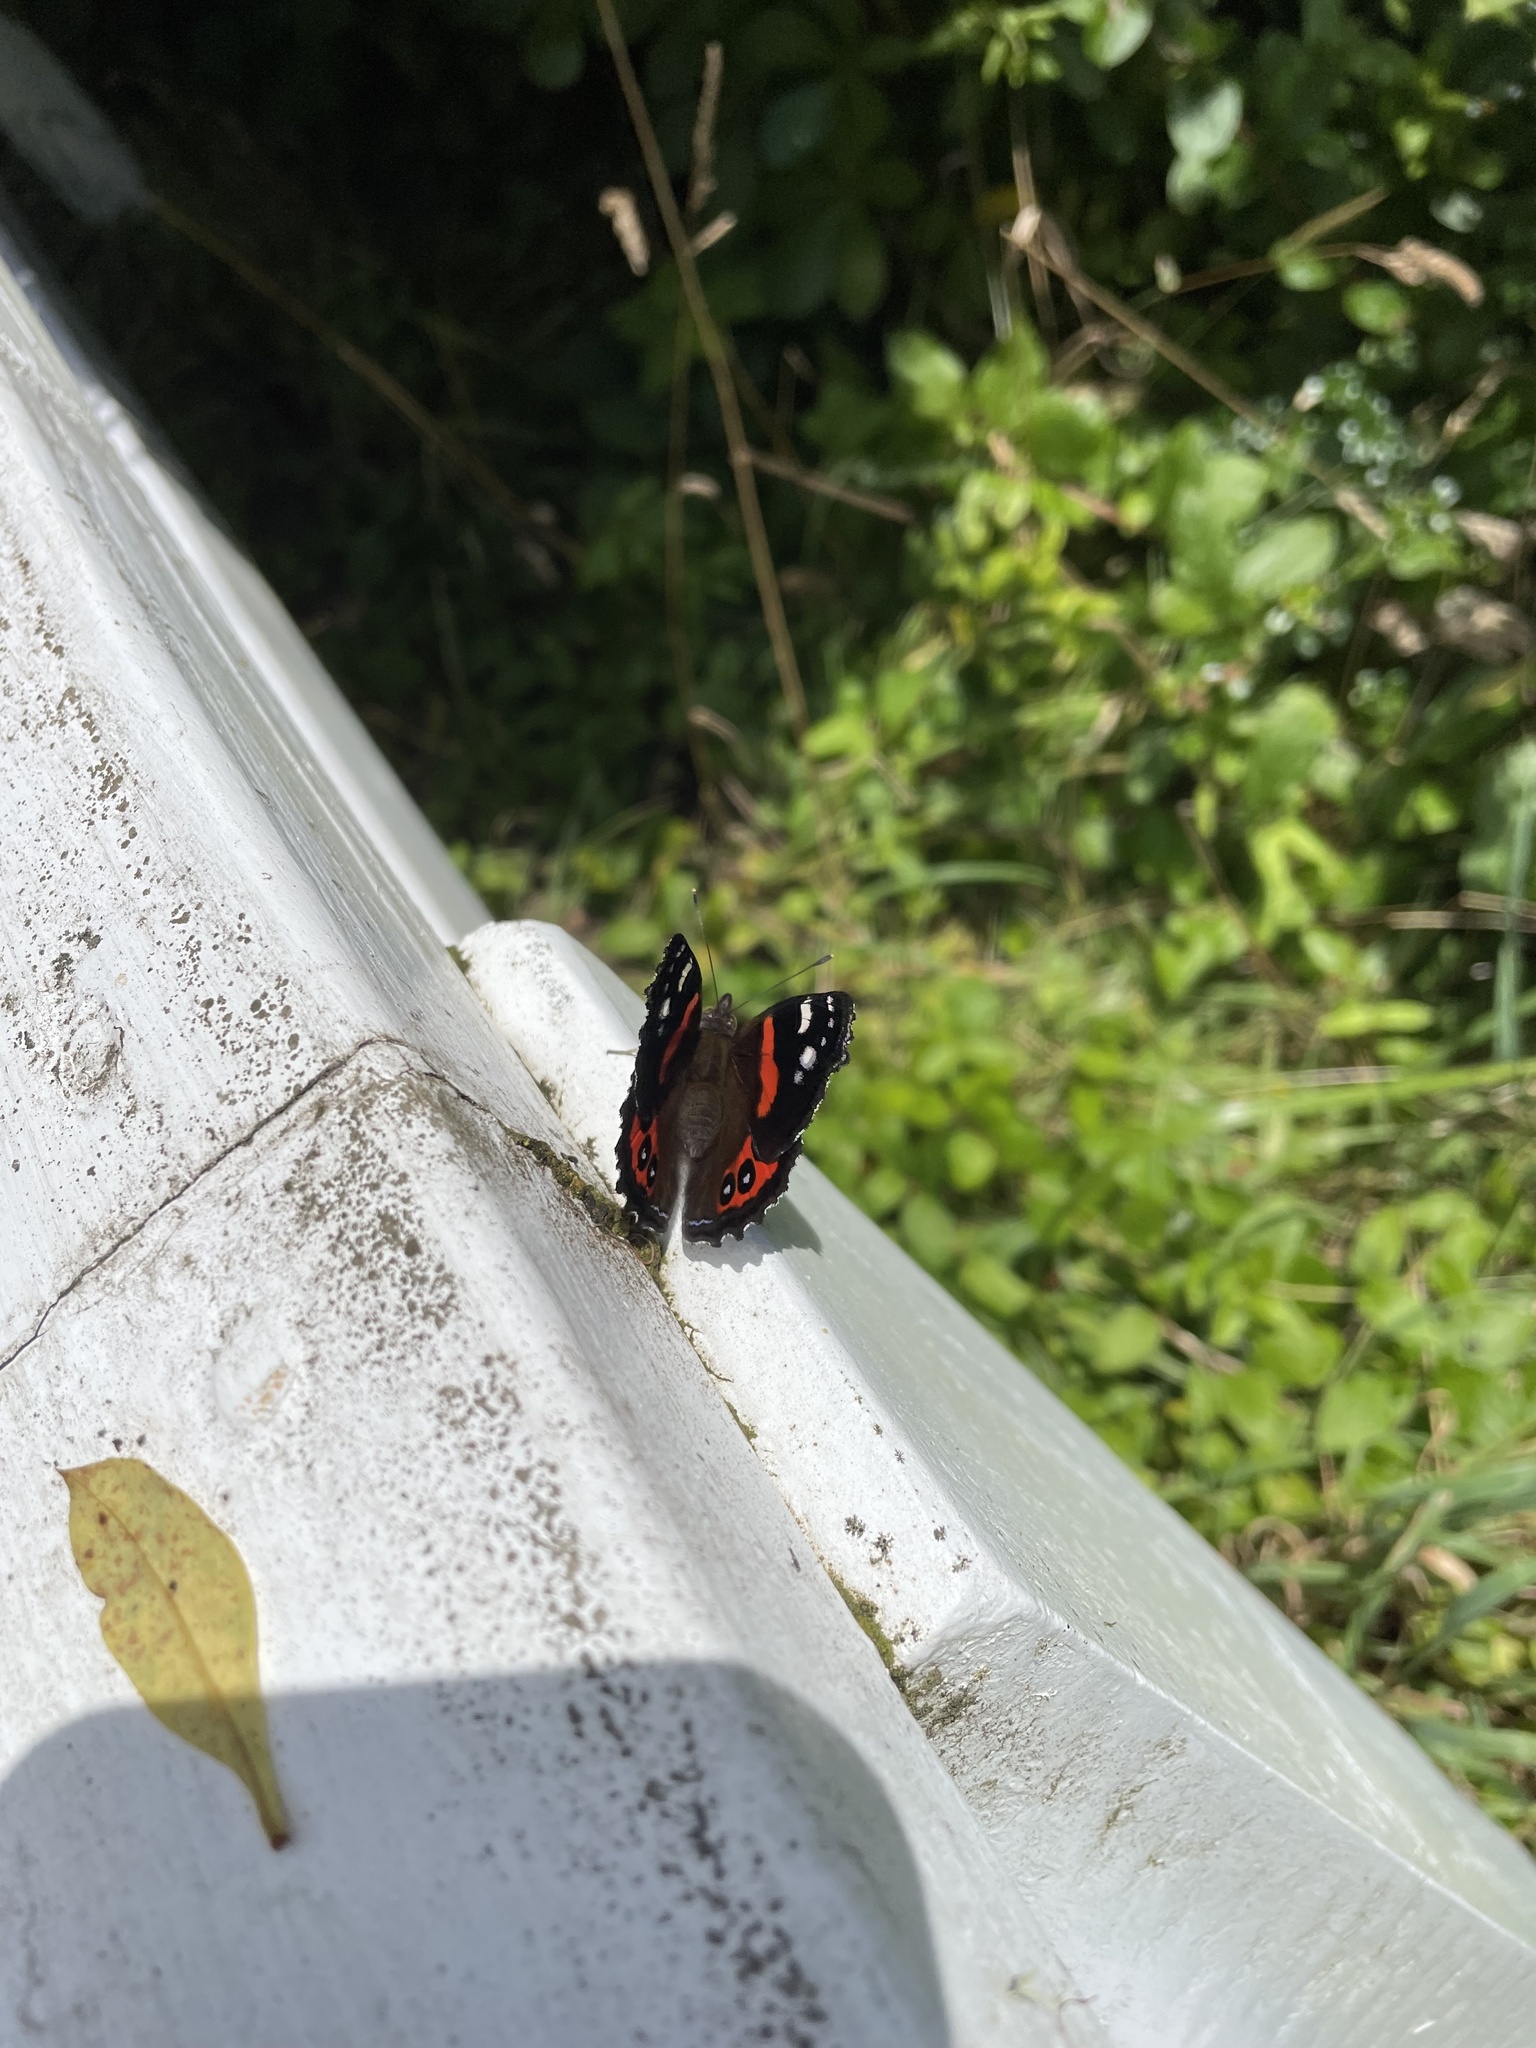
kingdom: Animalia
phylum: Arthropoda
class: Insecta
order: Lepidoptera
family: Nymphalidae
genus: Vanessa
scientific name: Vanessa gonerilla
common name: New zealand red admiral
